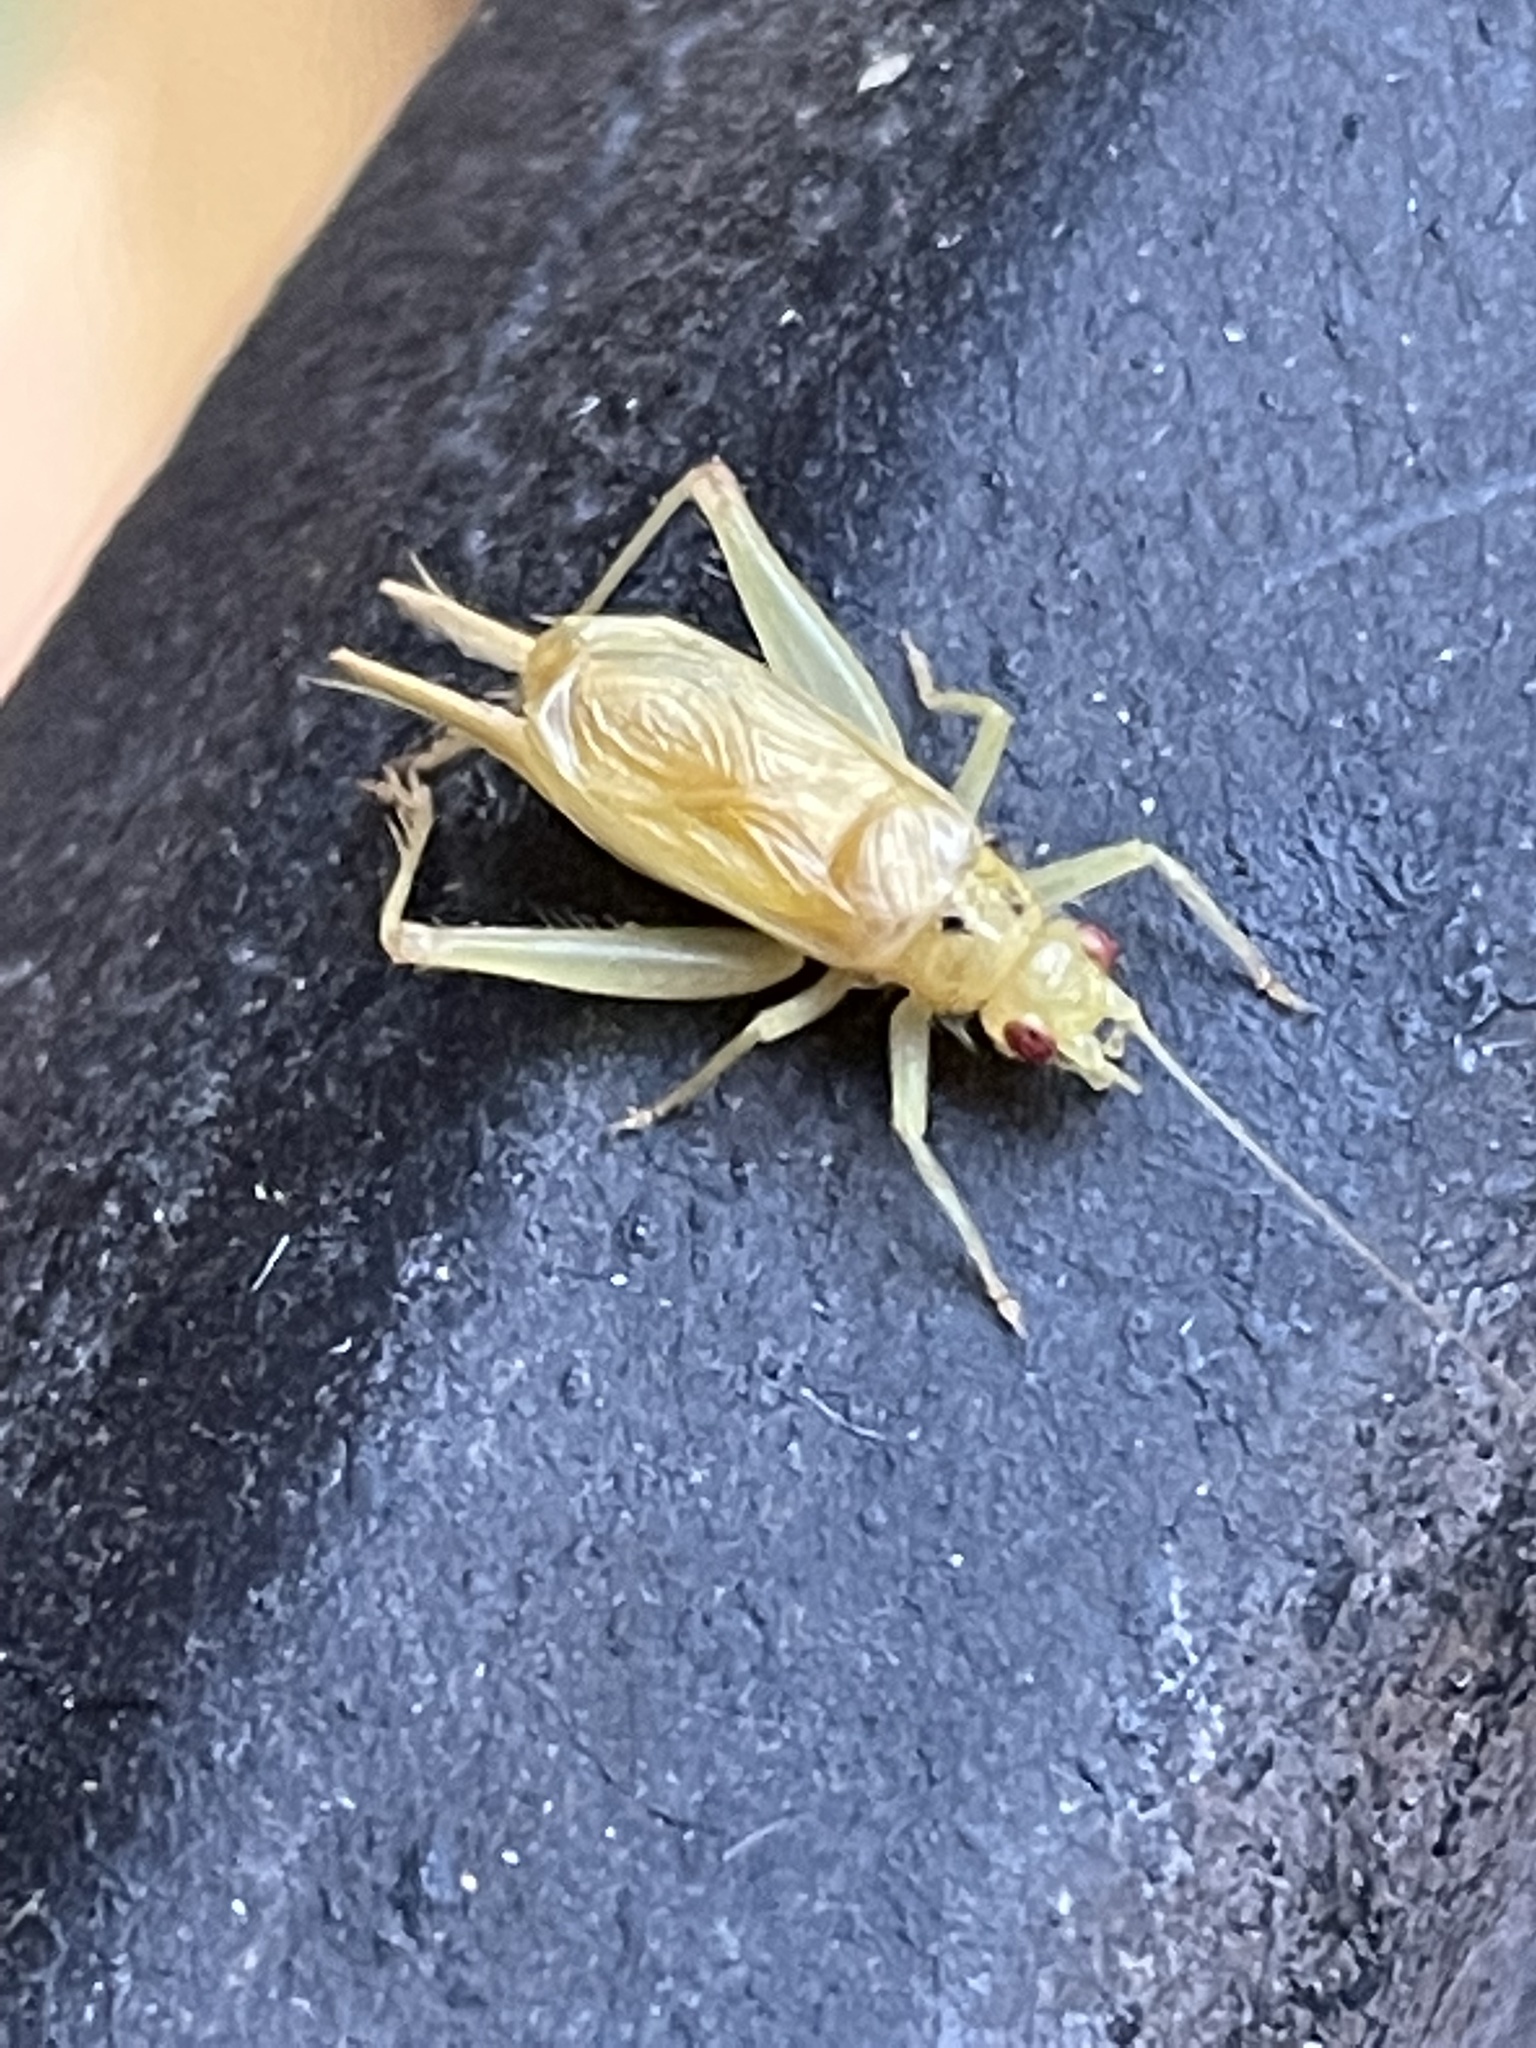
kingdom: Animalia
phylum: Arthropoda
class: Insecta
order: Orthoptera
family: Trigonidiidae
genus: Cyrtoxipha
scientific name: Cyrtoxipha columbiana
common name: Columbian trig
